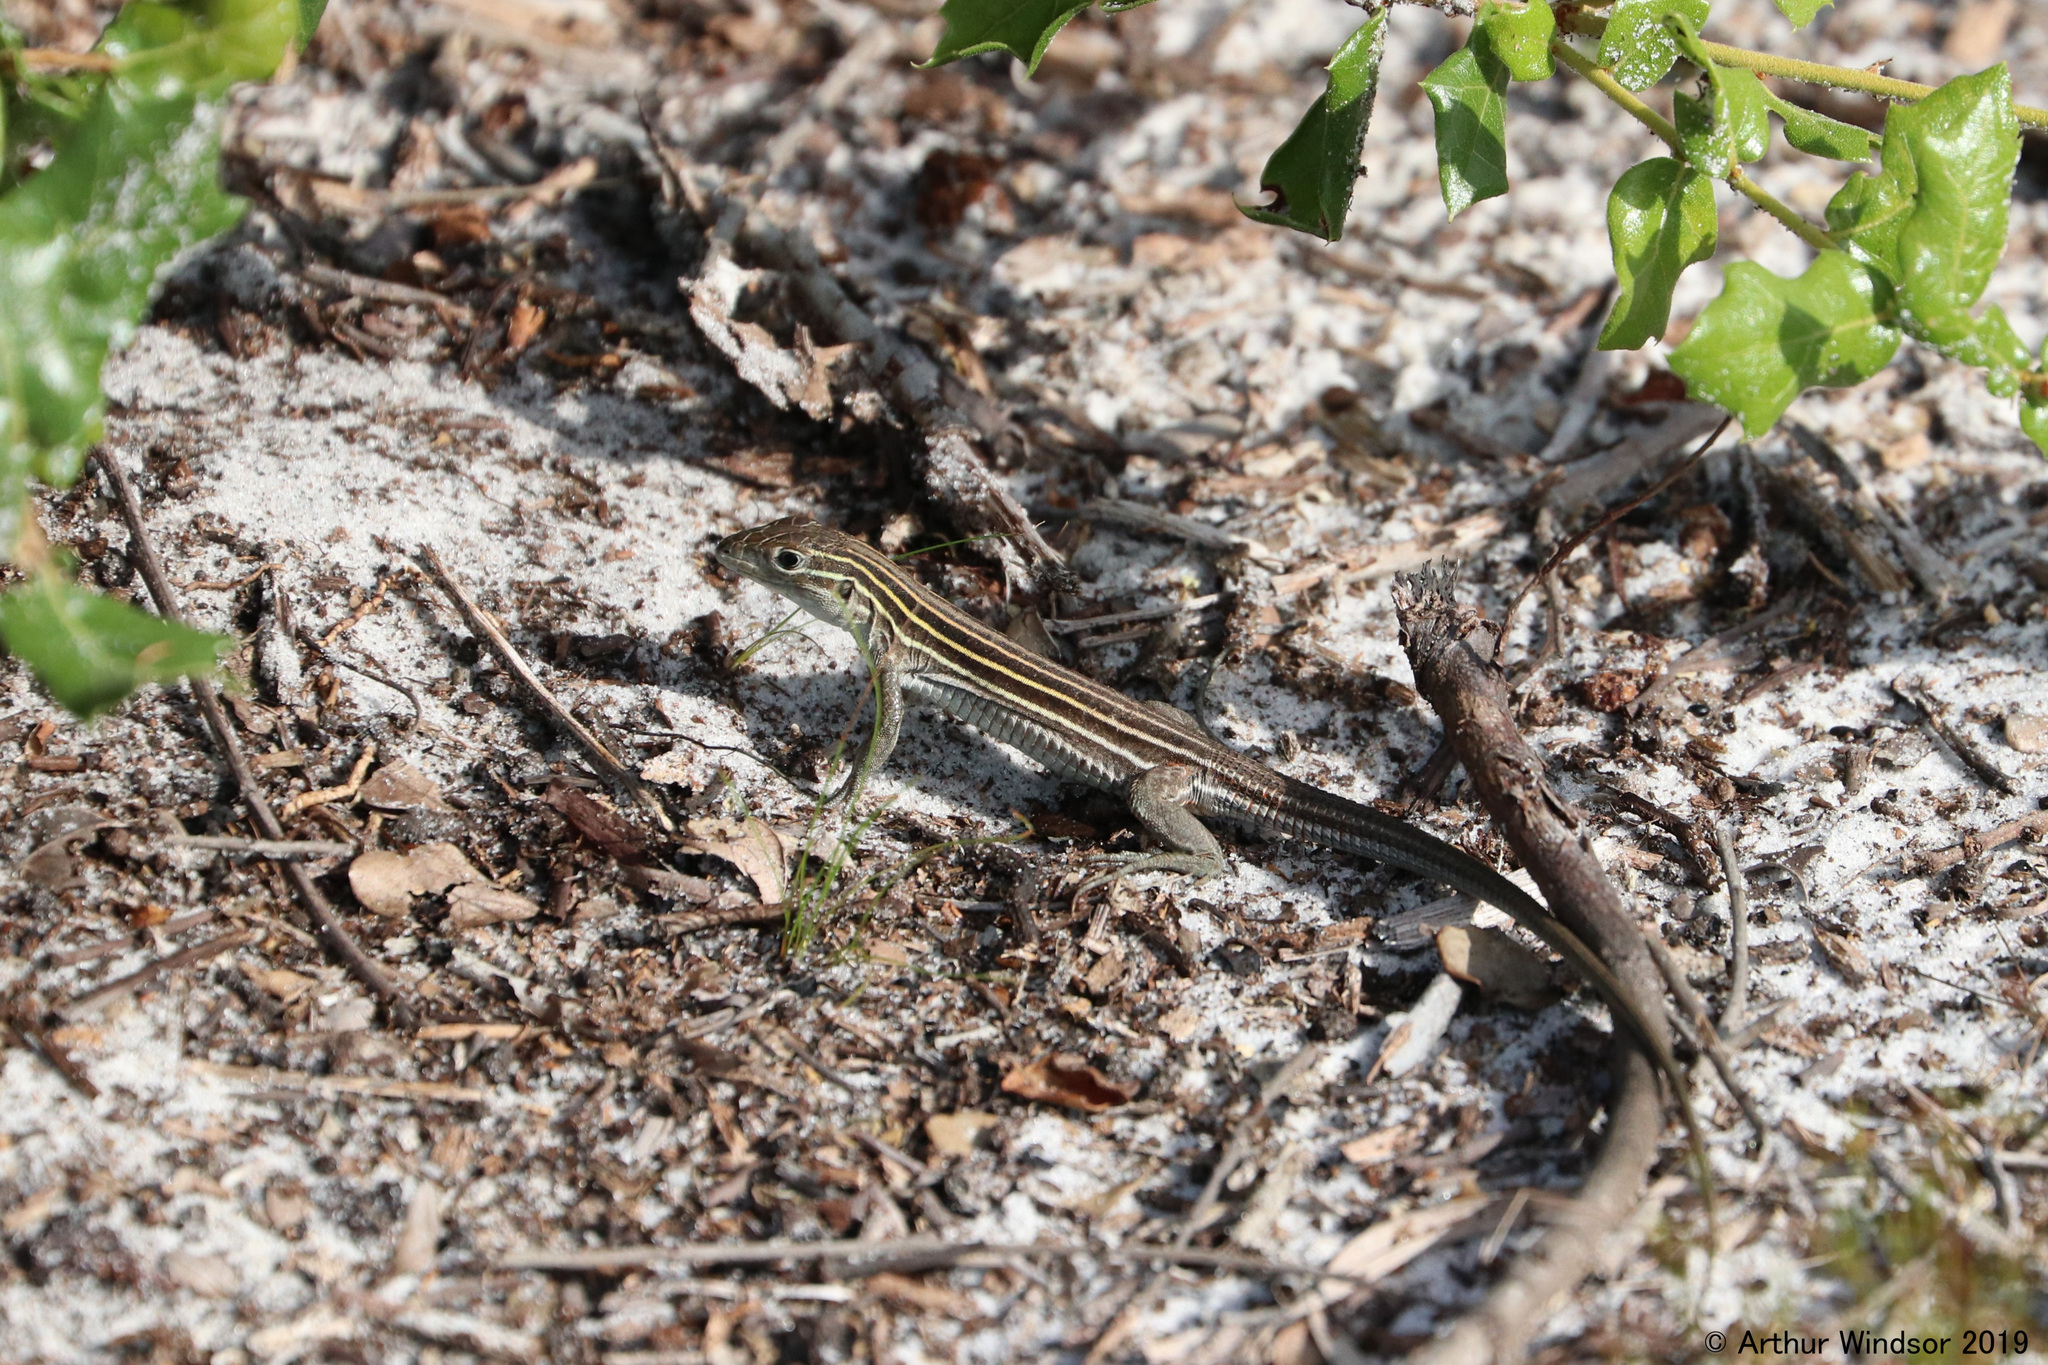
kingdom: Animalia
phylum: Chordata
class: Squamata
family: Teiidae
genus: Aspidoscelis
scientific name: Aspidoscelis sexlineatus
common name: Six-lined racerunner
